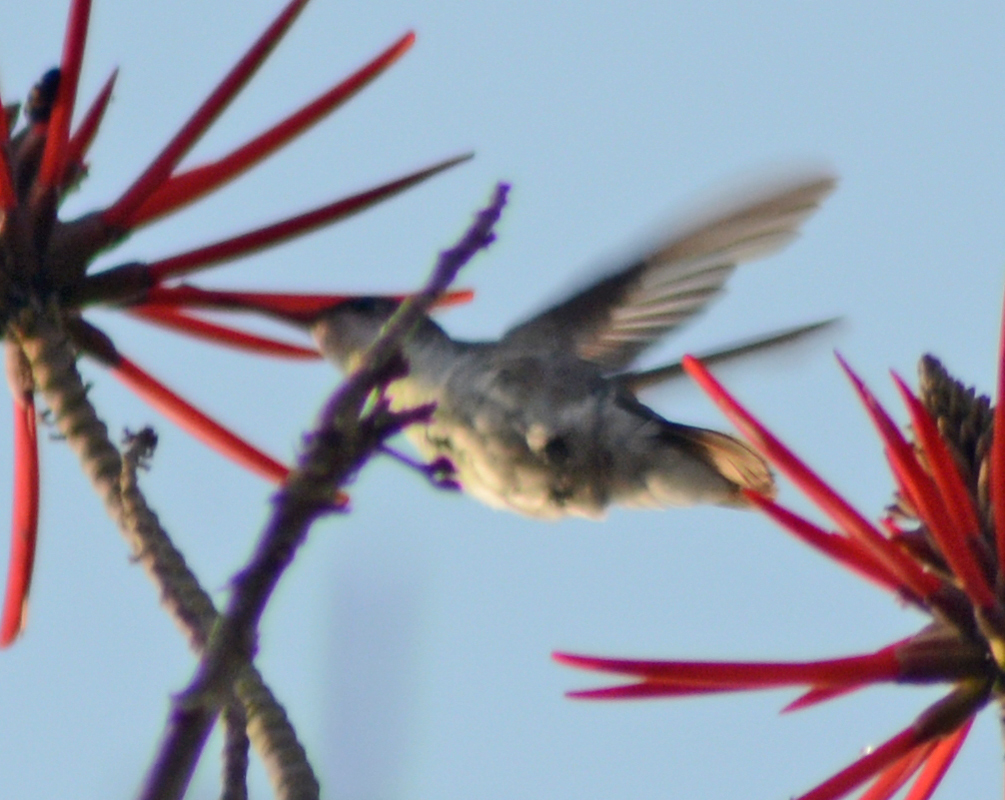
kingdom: Animalia
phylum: Chordata
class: Aves
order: Apodiformes
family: Trochilidae
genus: Leucolia
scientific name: Leucolia violiceps
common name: Violet-crowned hummingbird
